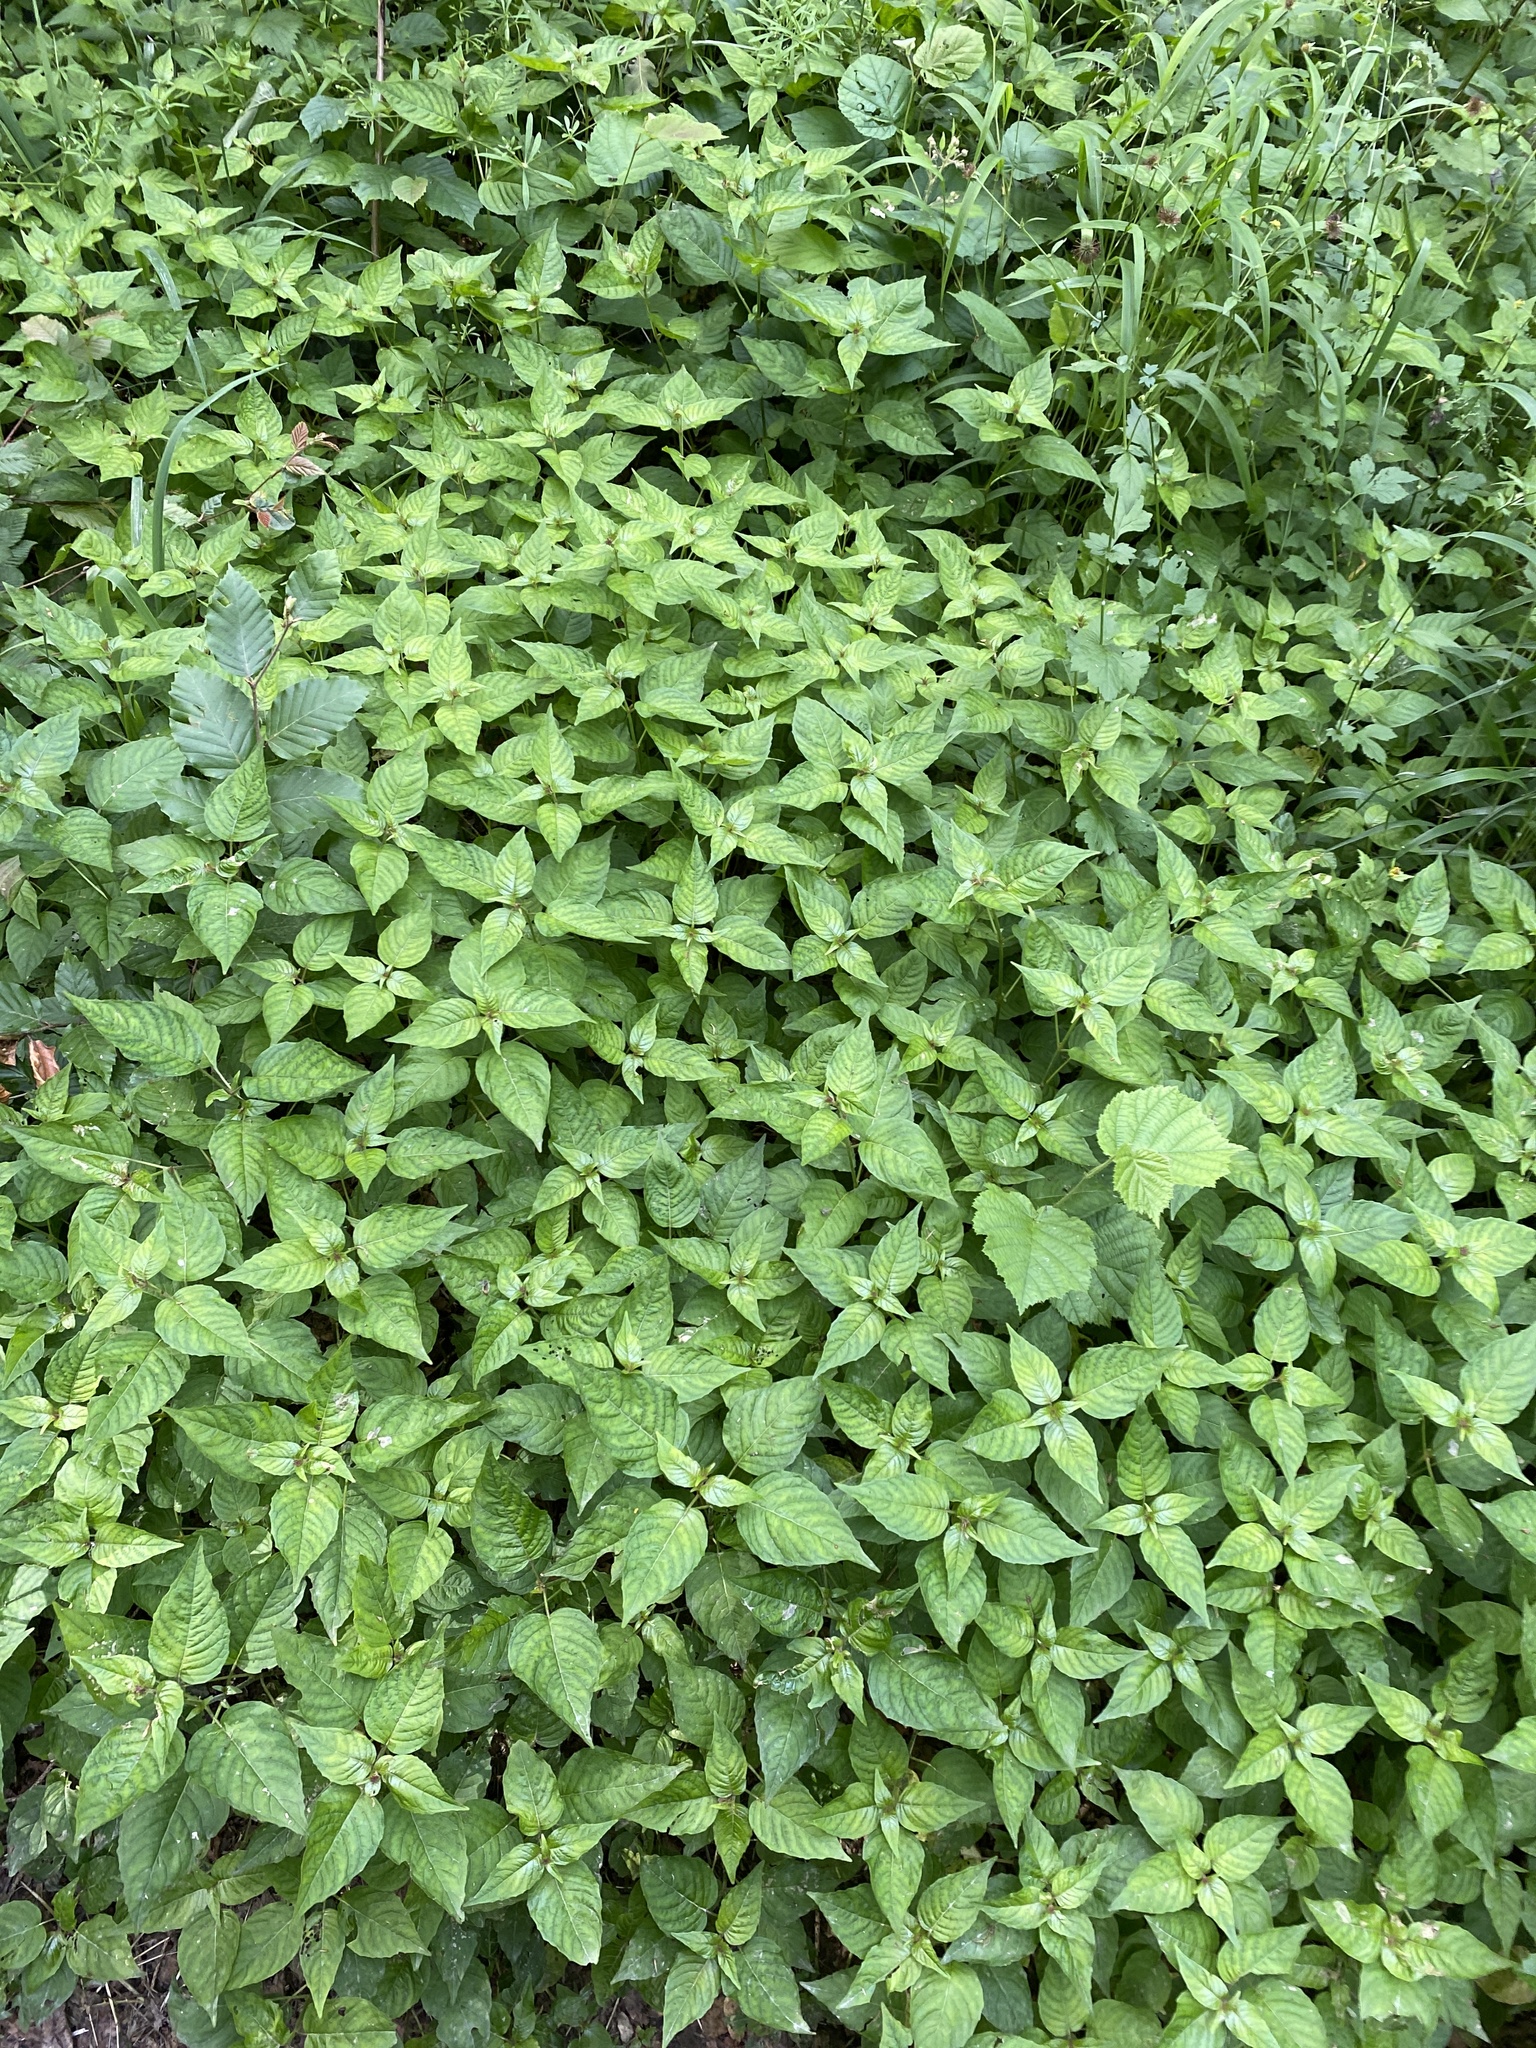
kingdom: Plantae
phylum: Tracheophyta
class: Magnoliopsida
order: Myrtales
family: Onagraceae
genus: Circaea
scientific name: Circaea lutetiana
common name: Enchanter's-nightshade
